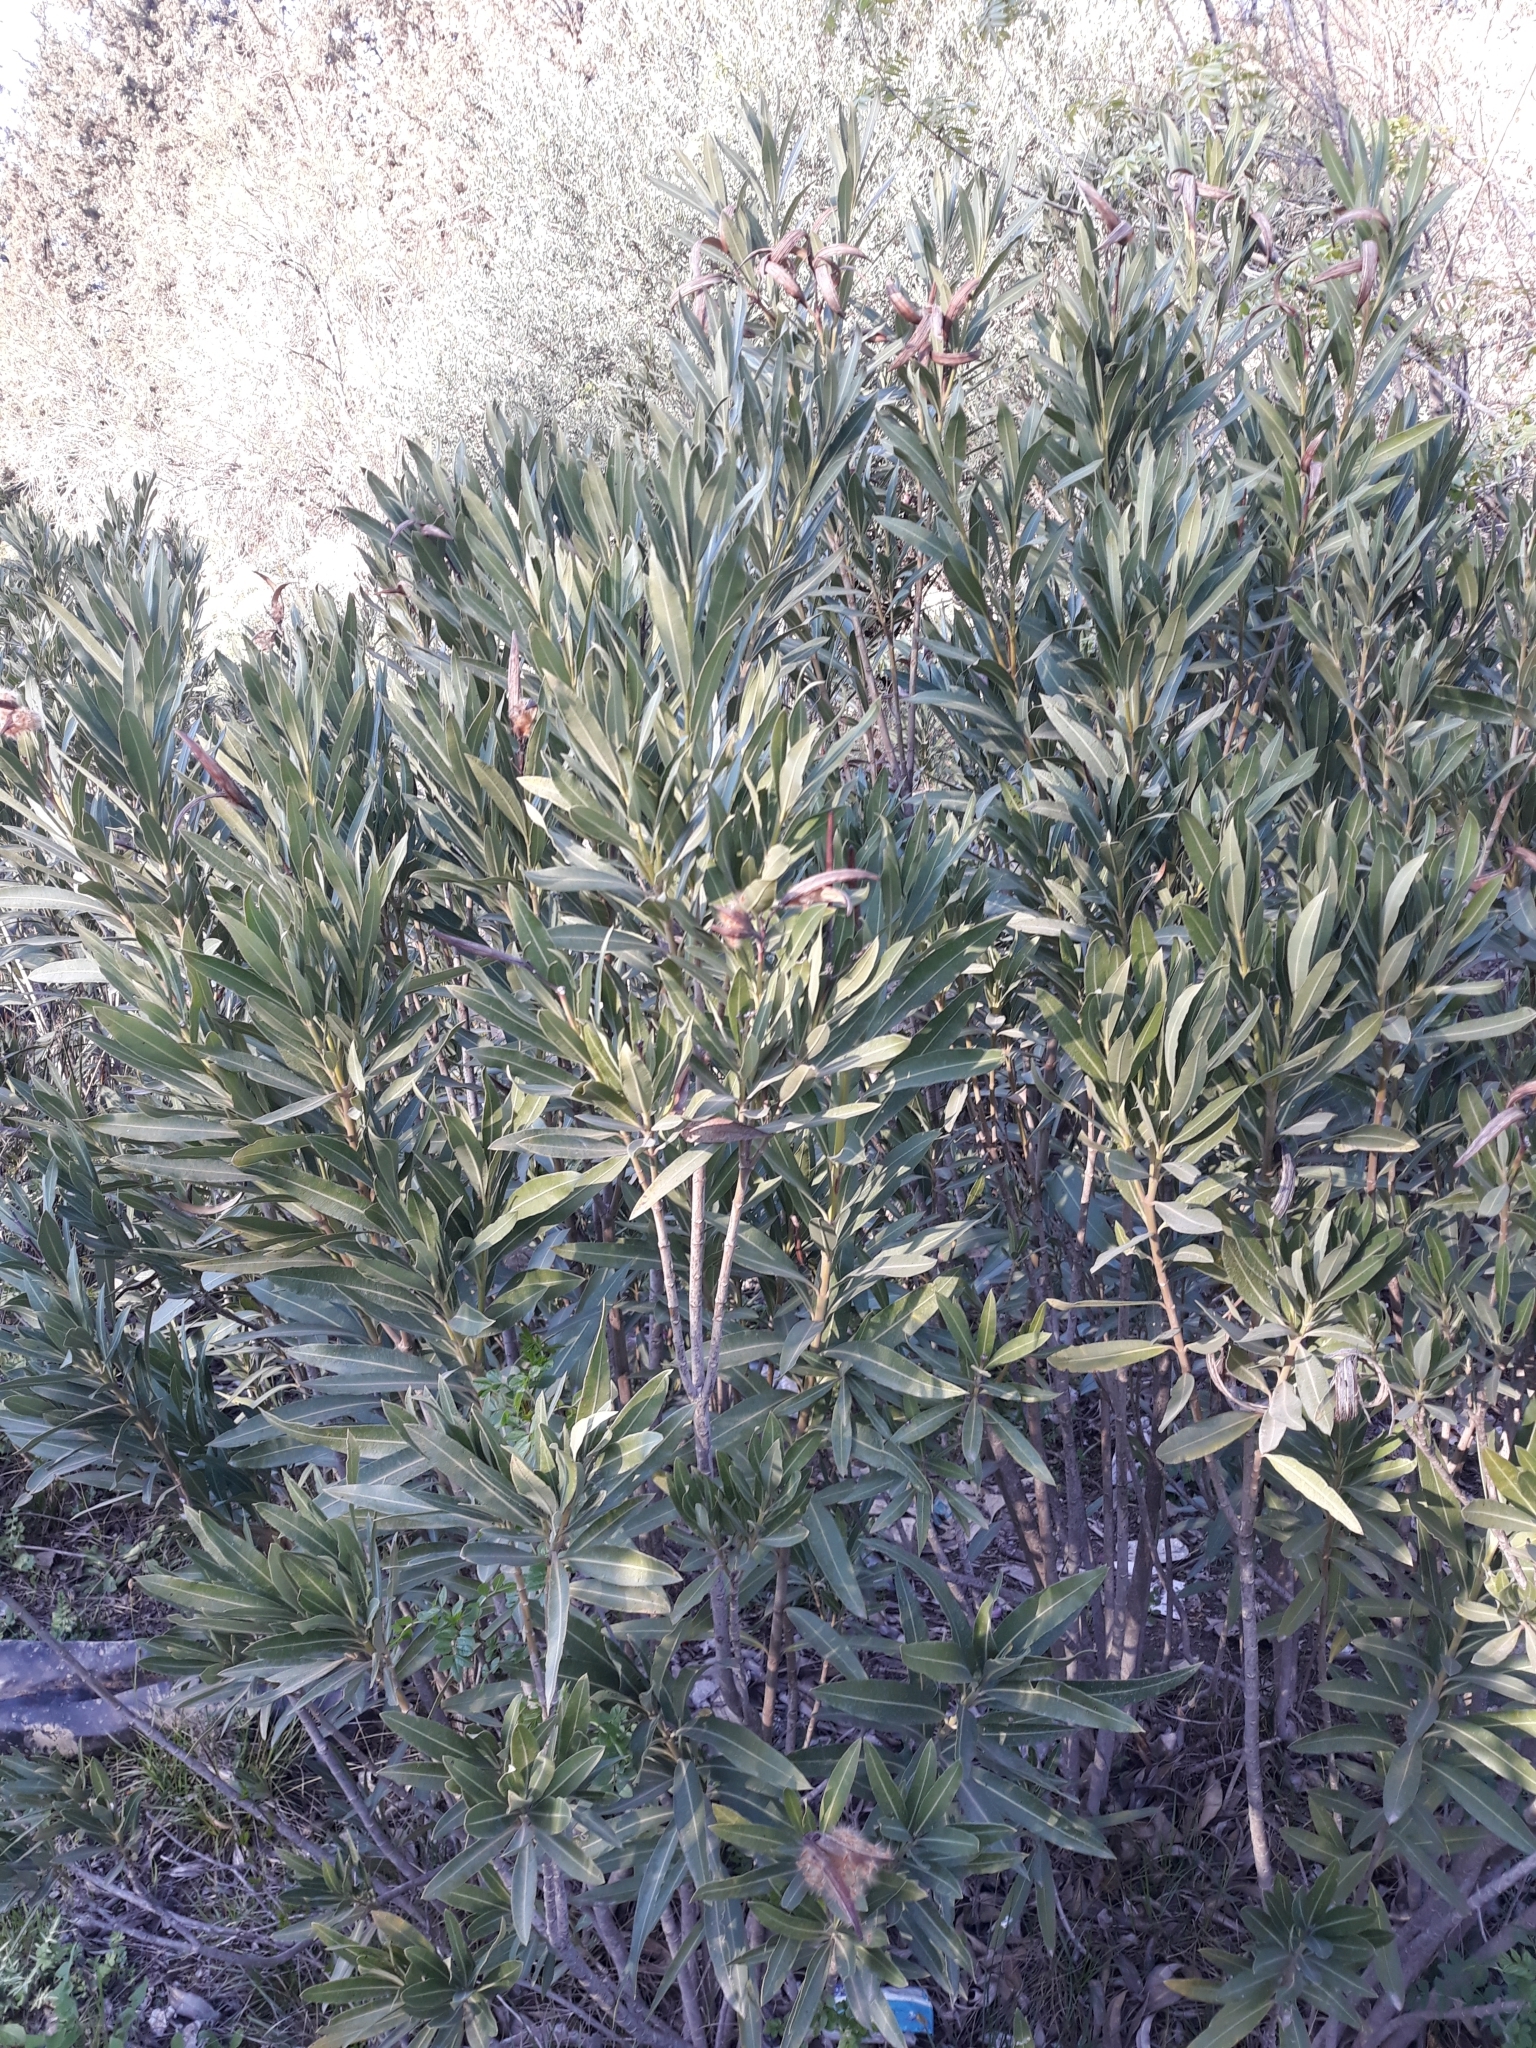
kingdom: Plantae
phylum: Tracheophyta
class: Magnoliopsida
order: Gentianales
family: Apocynaceae
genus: Nerium
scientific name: Nerium oleander
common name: Oleander
